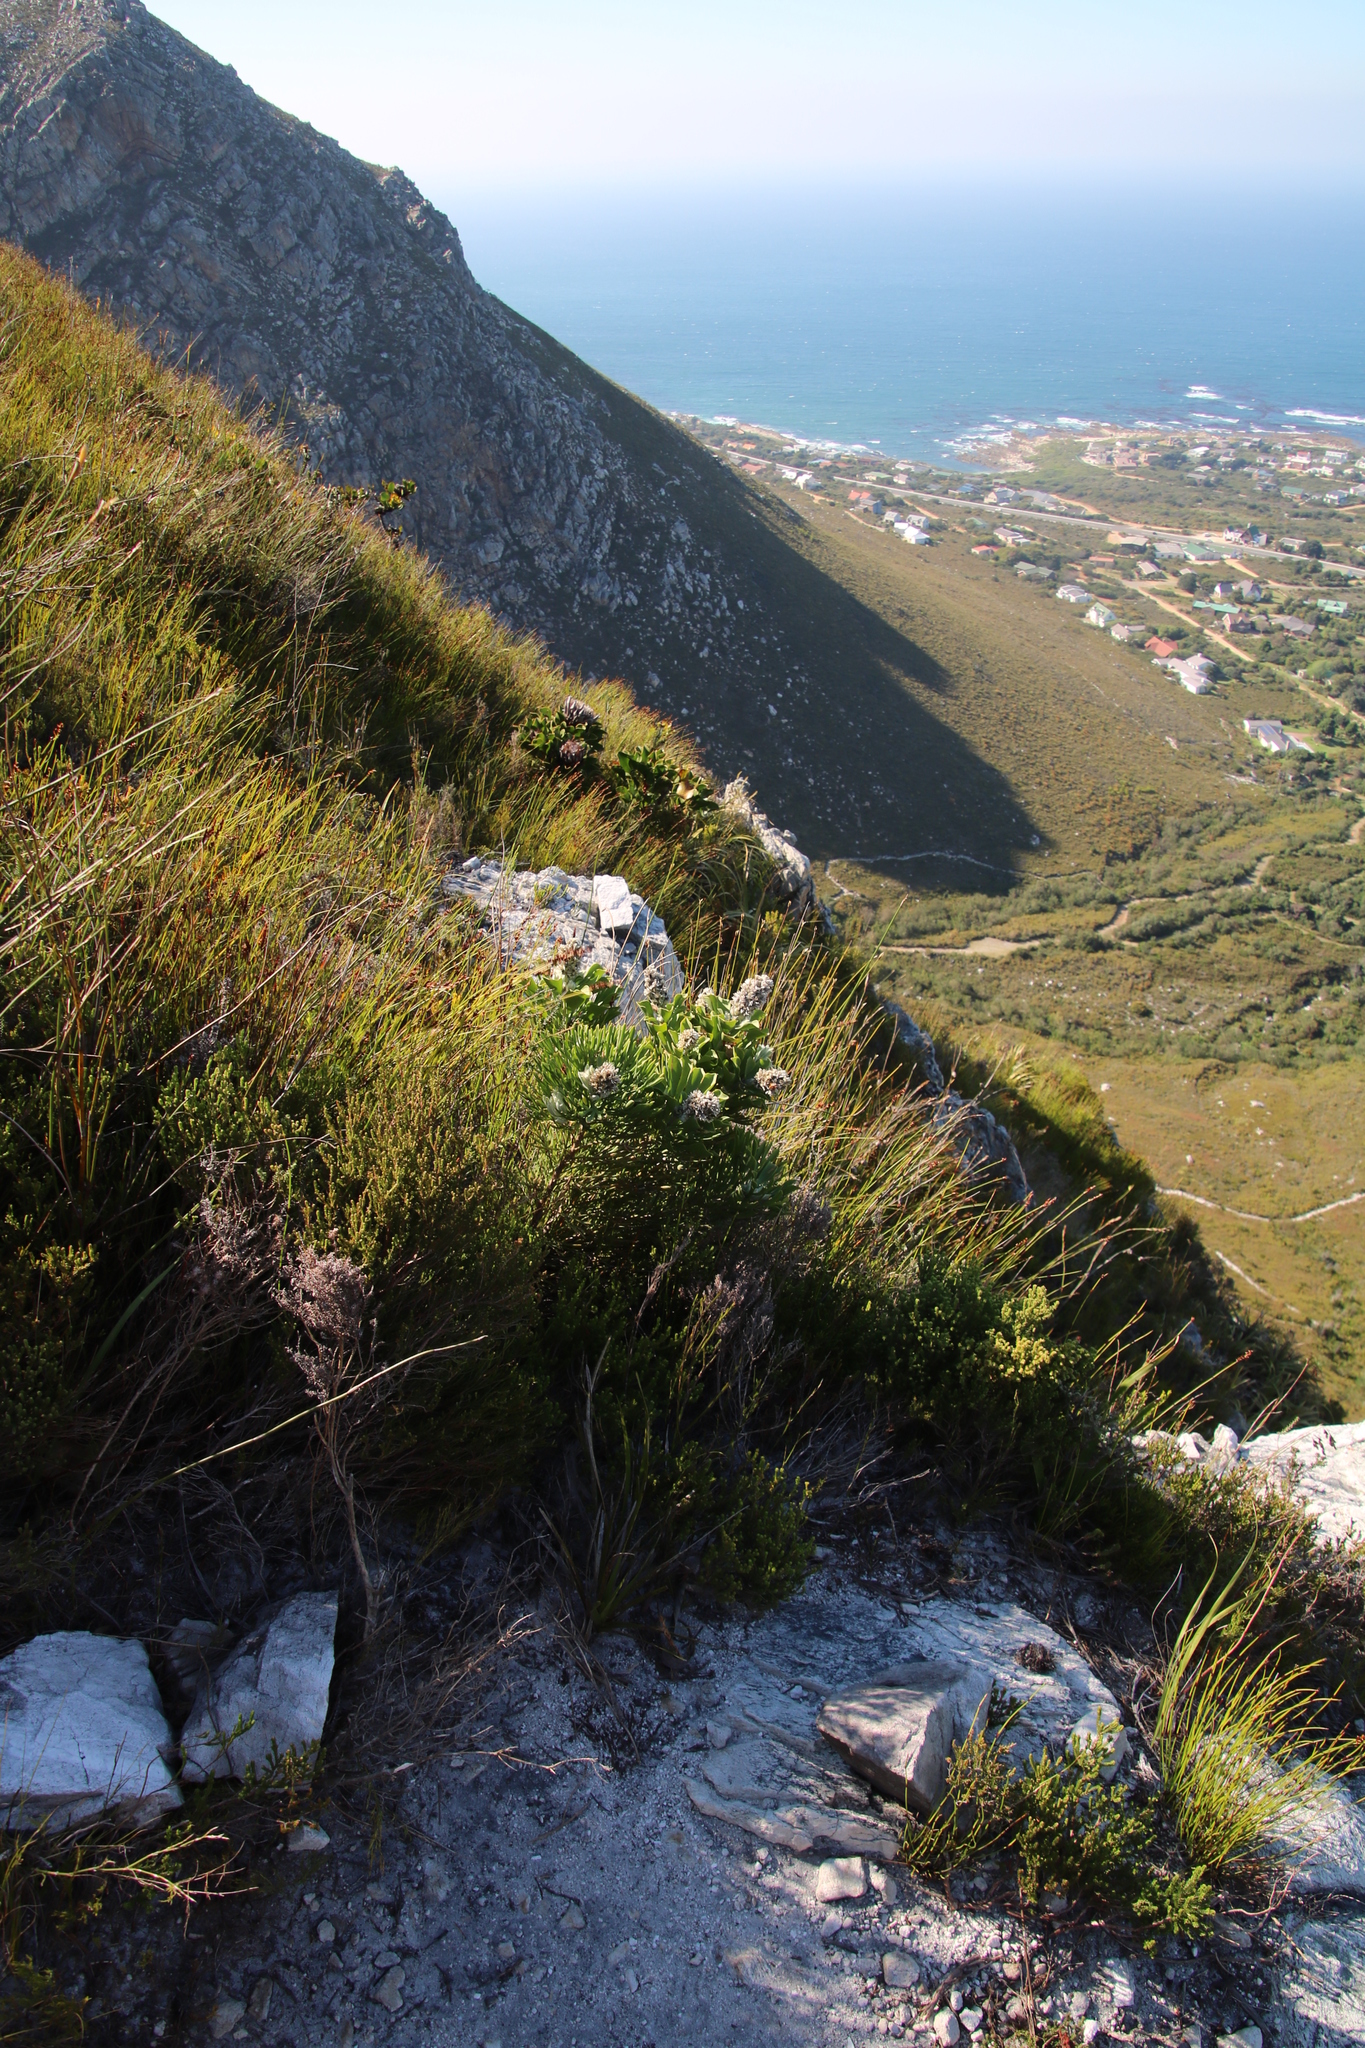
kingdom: Plantae
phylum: Tracheophyta
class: Magnoliopsida
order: Proteales
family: Proteaceae
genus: Paranomus
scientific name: Paranomus sceptrum-gustavianus
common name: King gustav's sceptre
